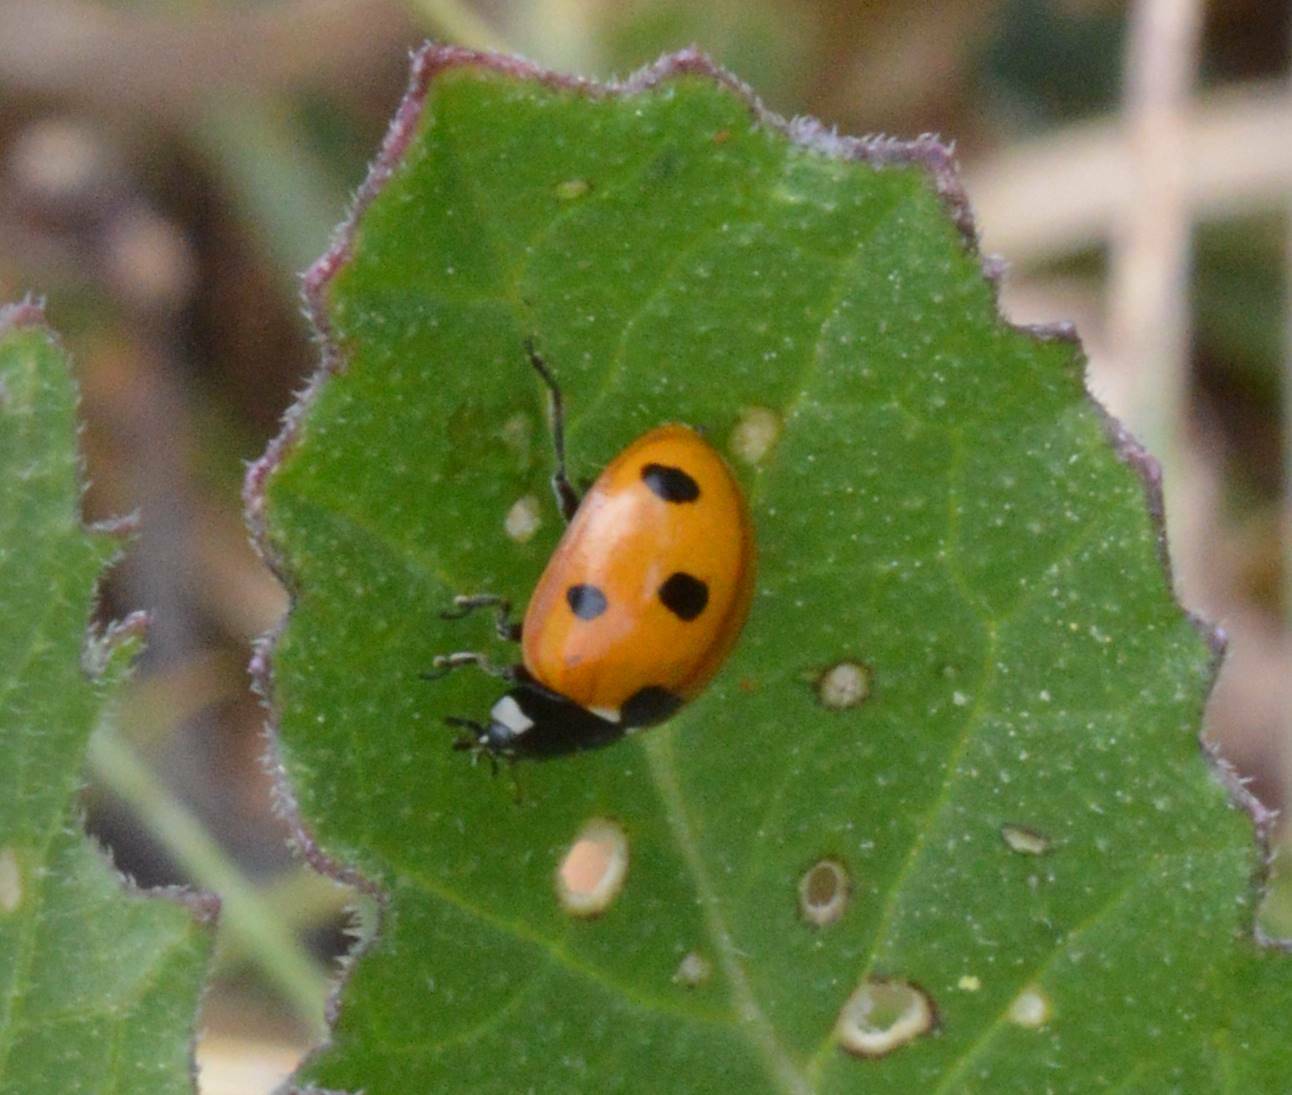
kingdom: Animalia
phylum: Arthropoda
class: Insecta
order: Coleoptera
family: Coccinellidae
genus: Coccinella
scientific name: Coccinella algerica
